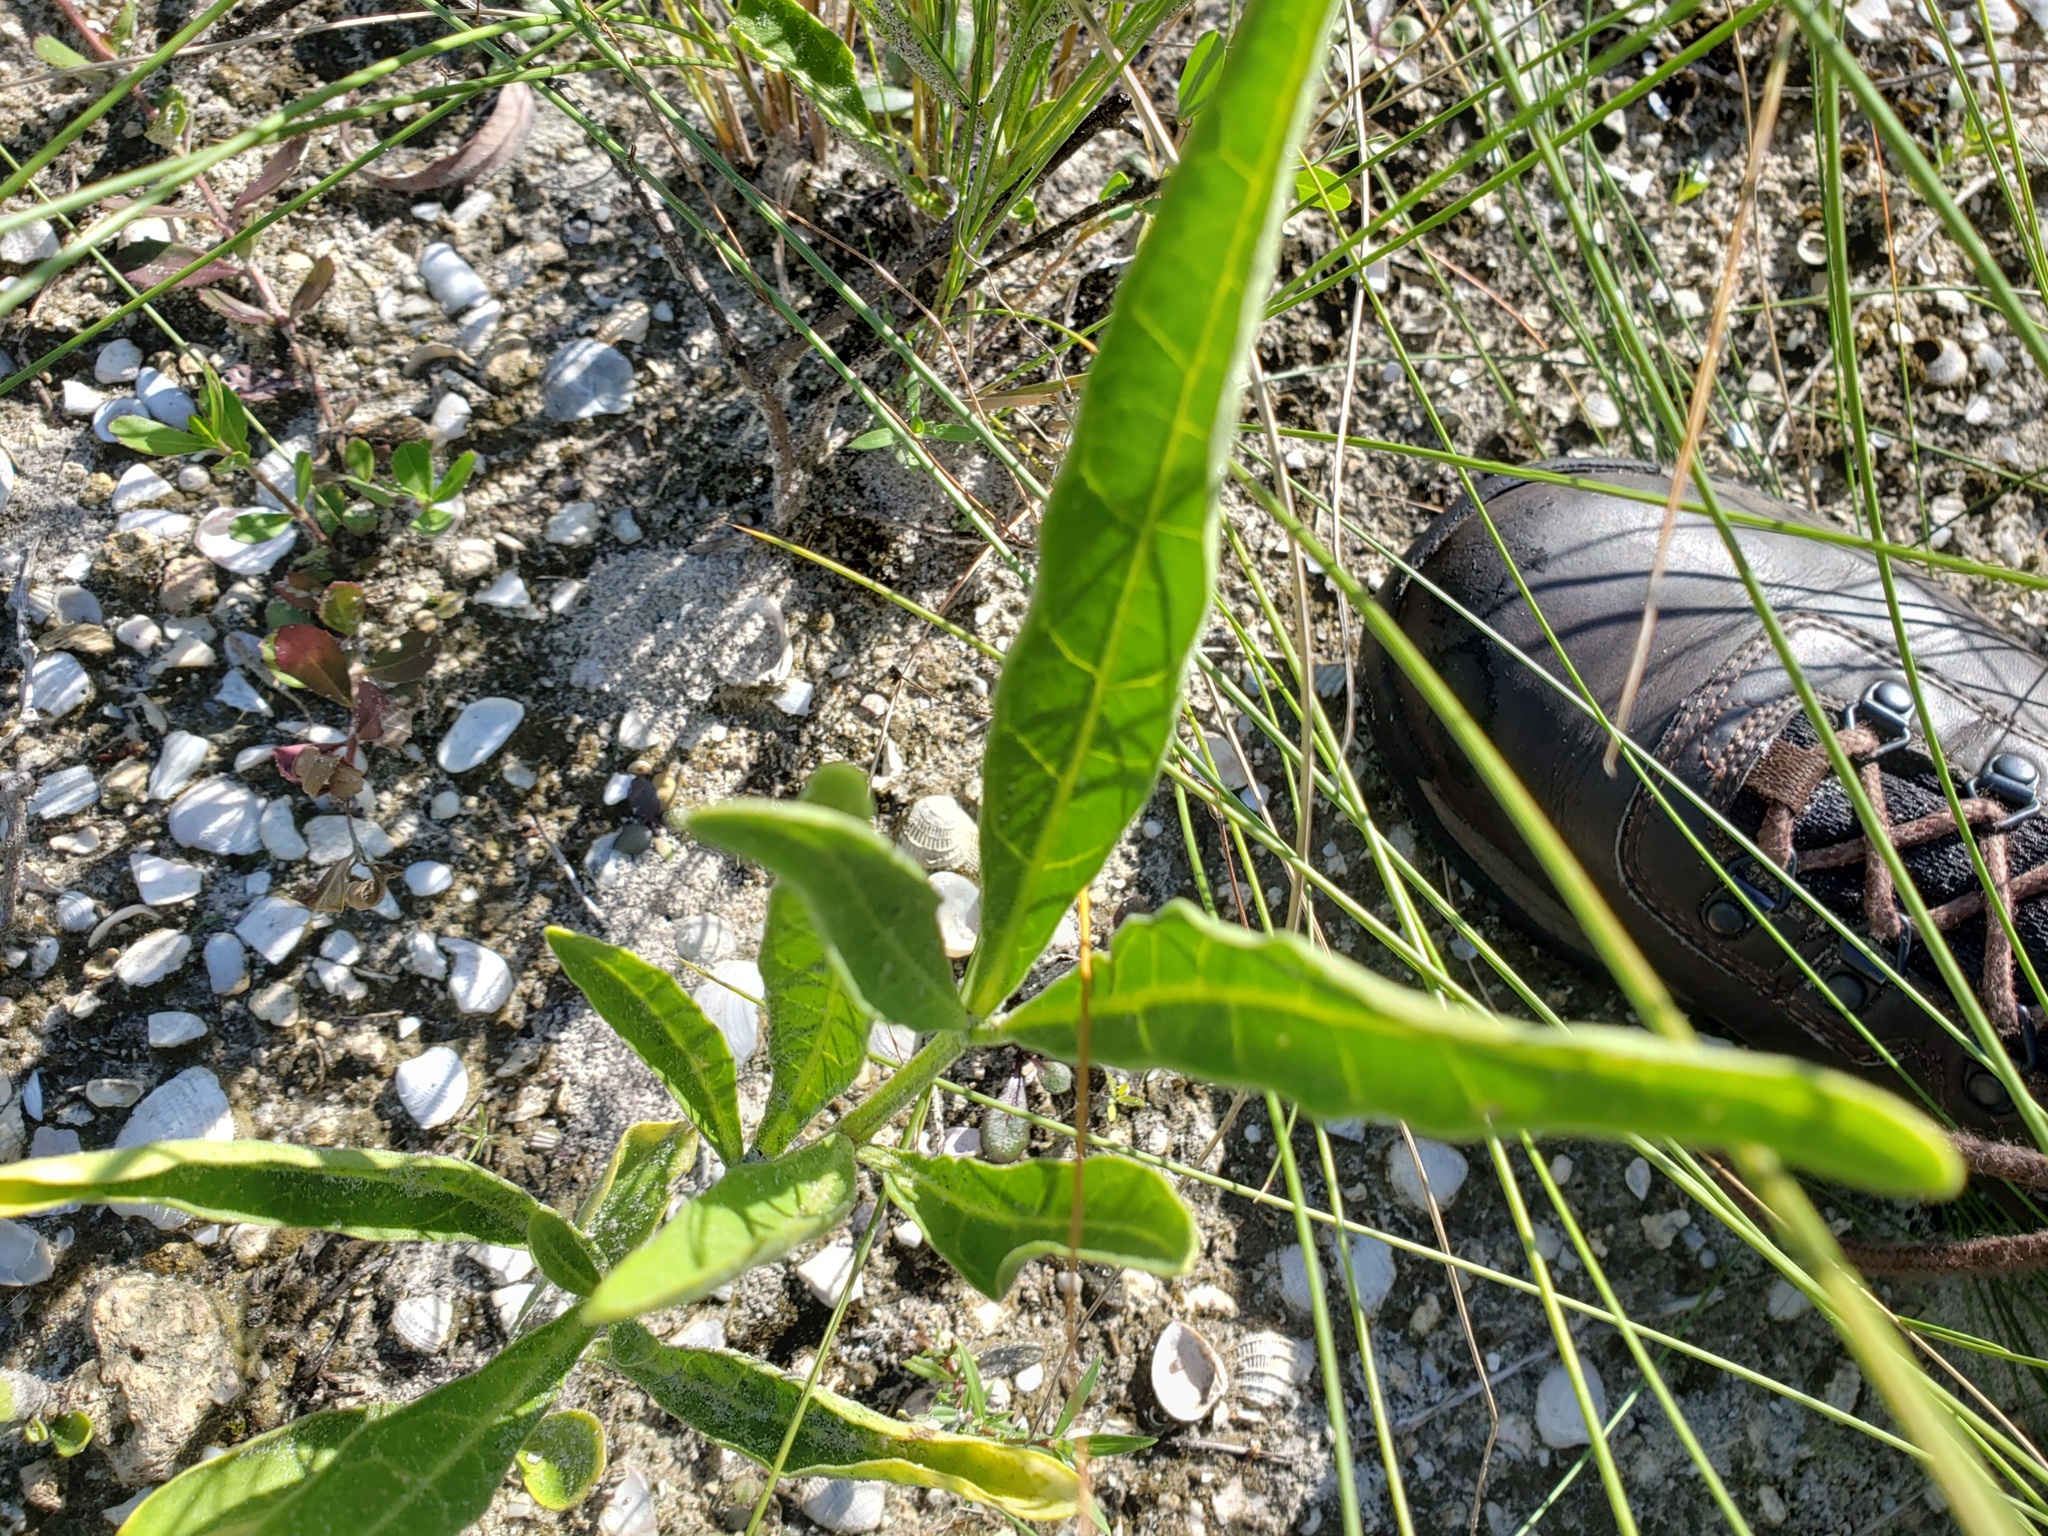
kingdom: Plantae
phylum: Tracheophyta
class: Magnoliopsida
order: Solanales
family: Solanaceae
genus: Physalis
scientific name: Physalis elliottii
